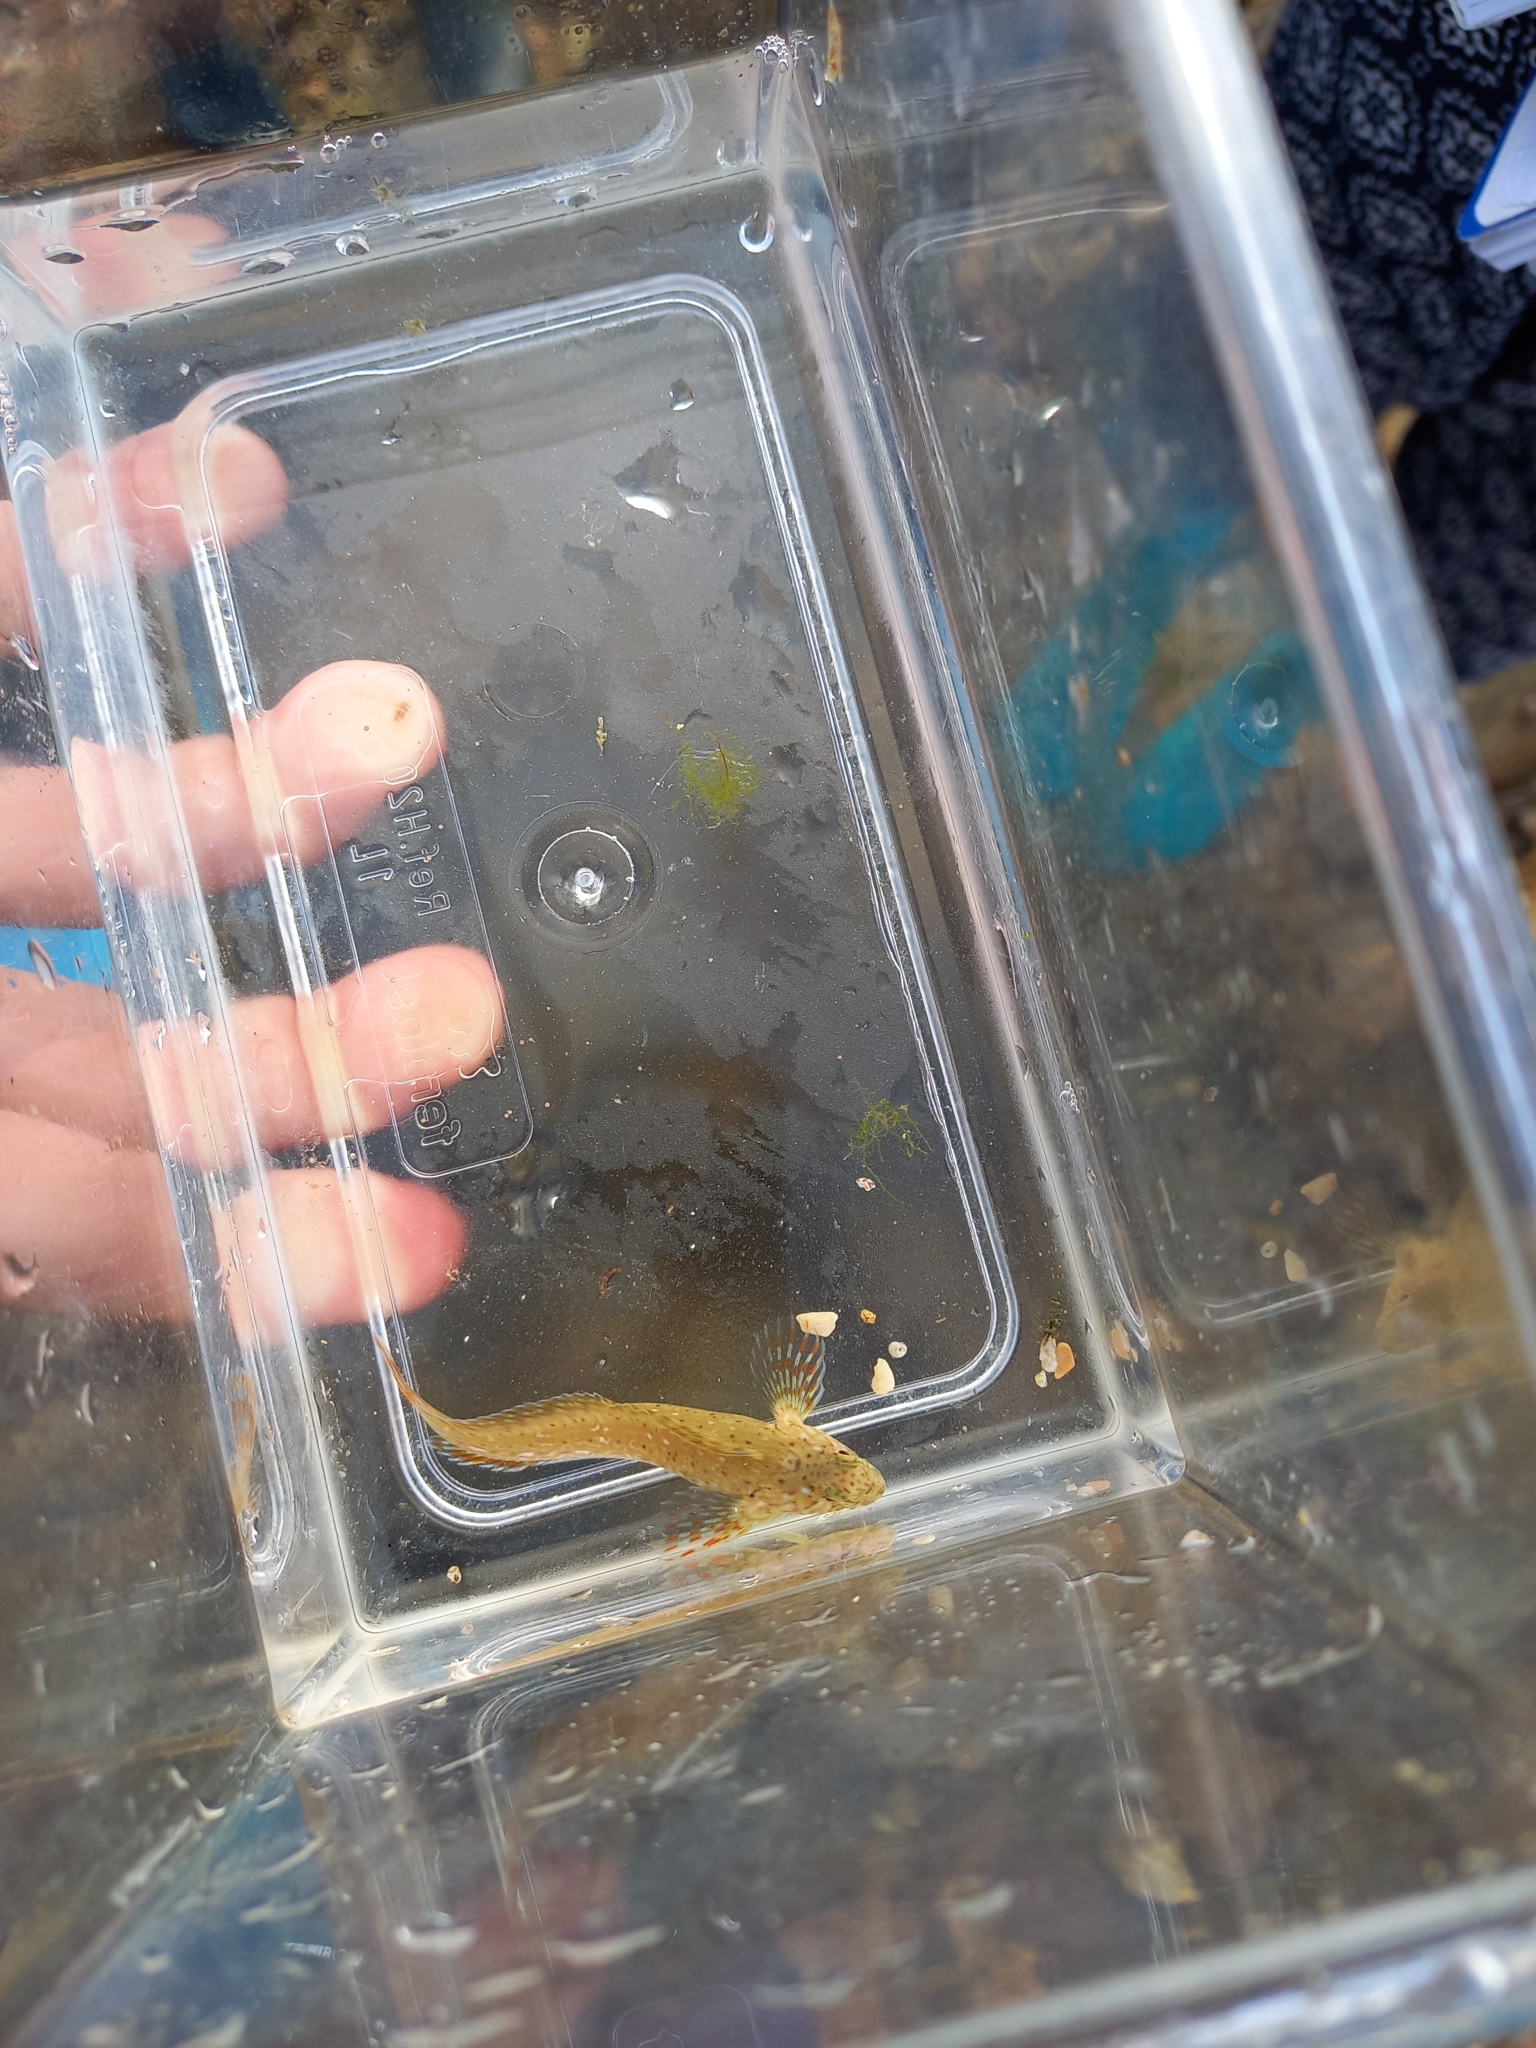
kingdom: Animalia
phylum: Chordata
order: Perciformes
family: Blenniidae
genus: Parablennius
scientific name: Parablennius sanguinolentus
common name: Black sea blenny
